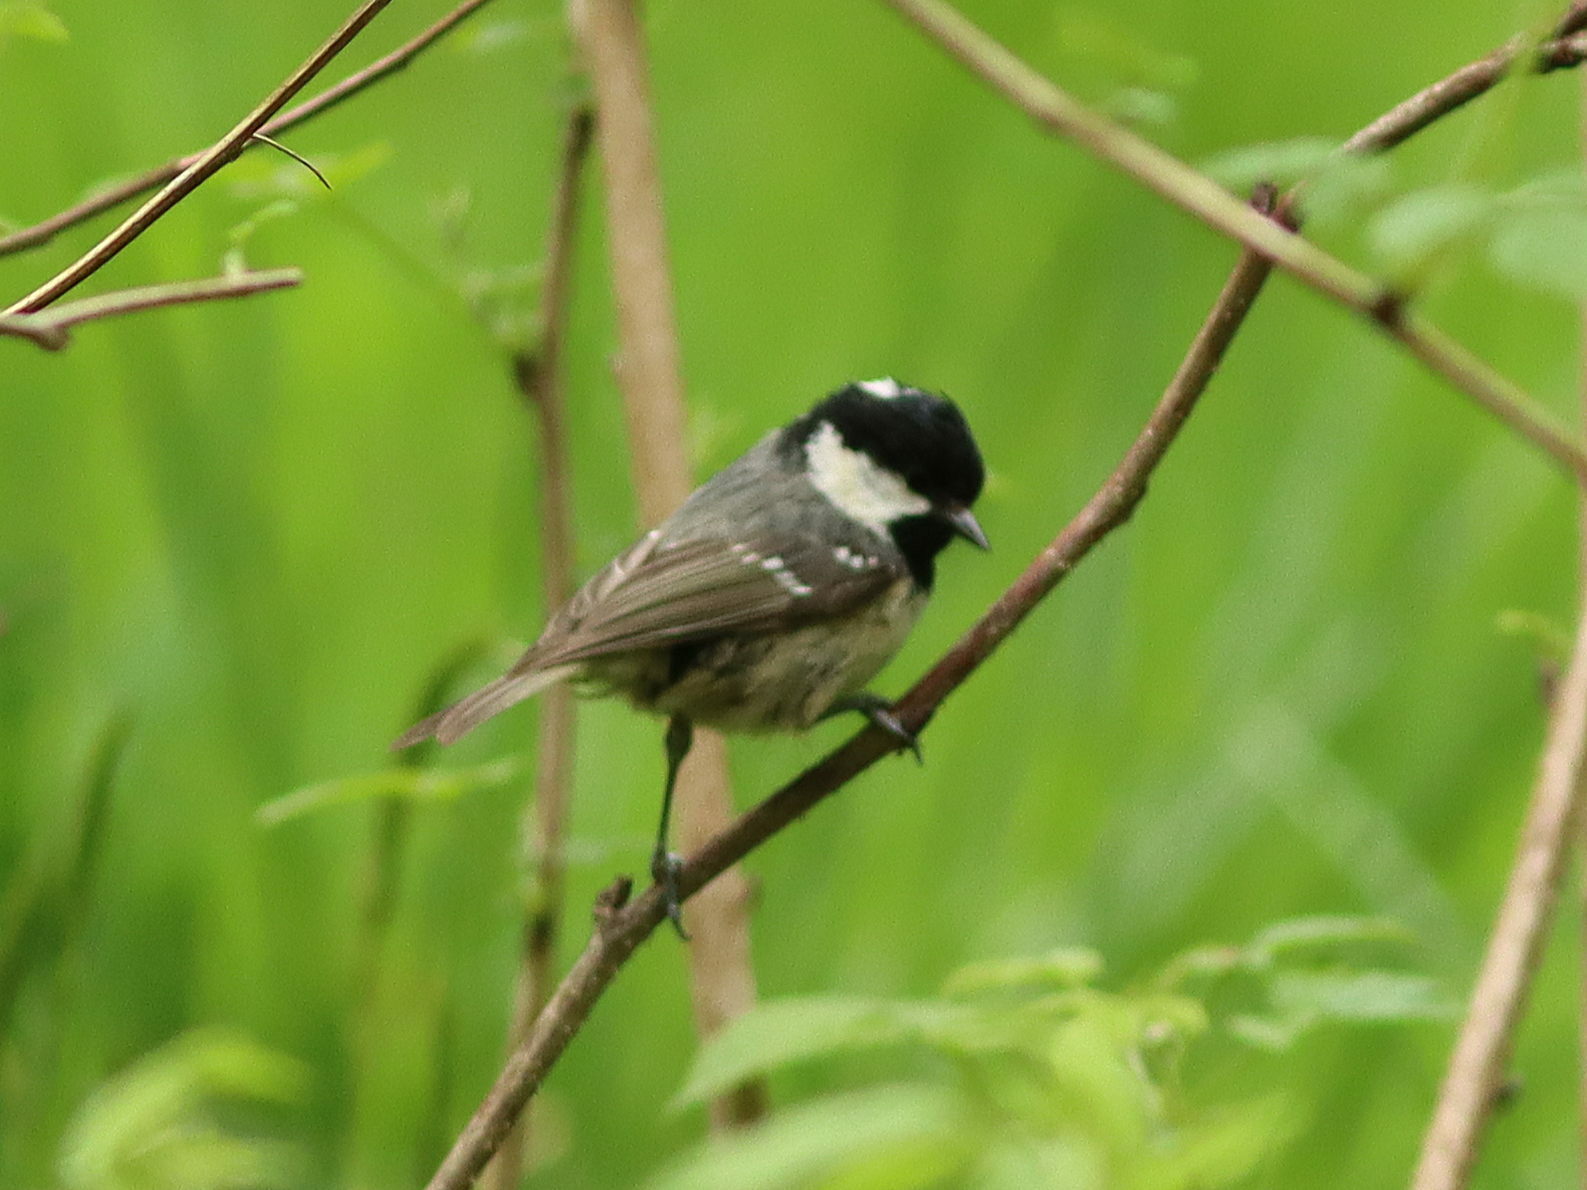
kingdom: Animalia
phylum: Chordata
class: Aves
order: Passeriformes
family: Paridae
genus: Periparus
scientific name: Periparus ater
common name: Coal tit
